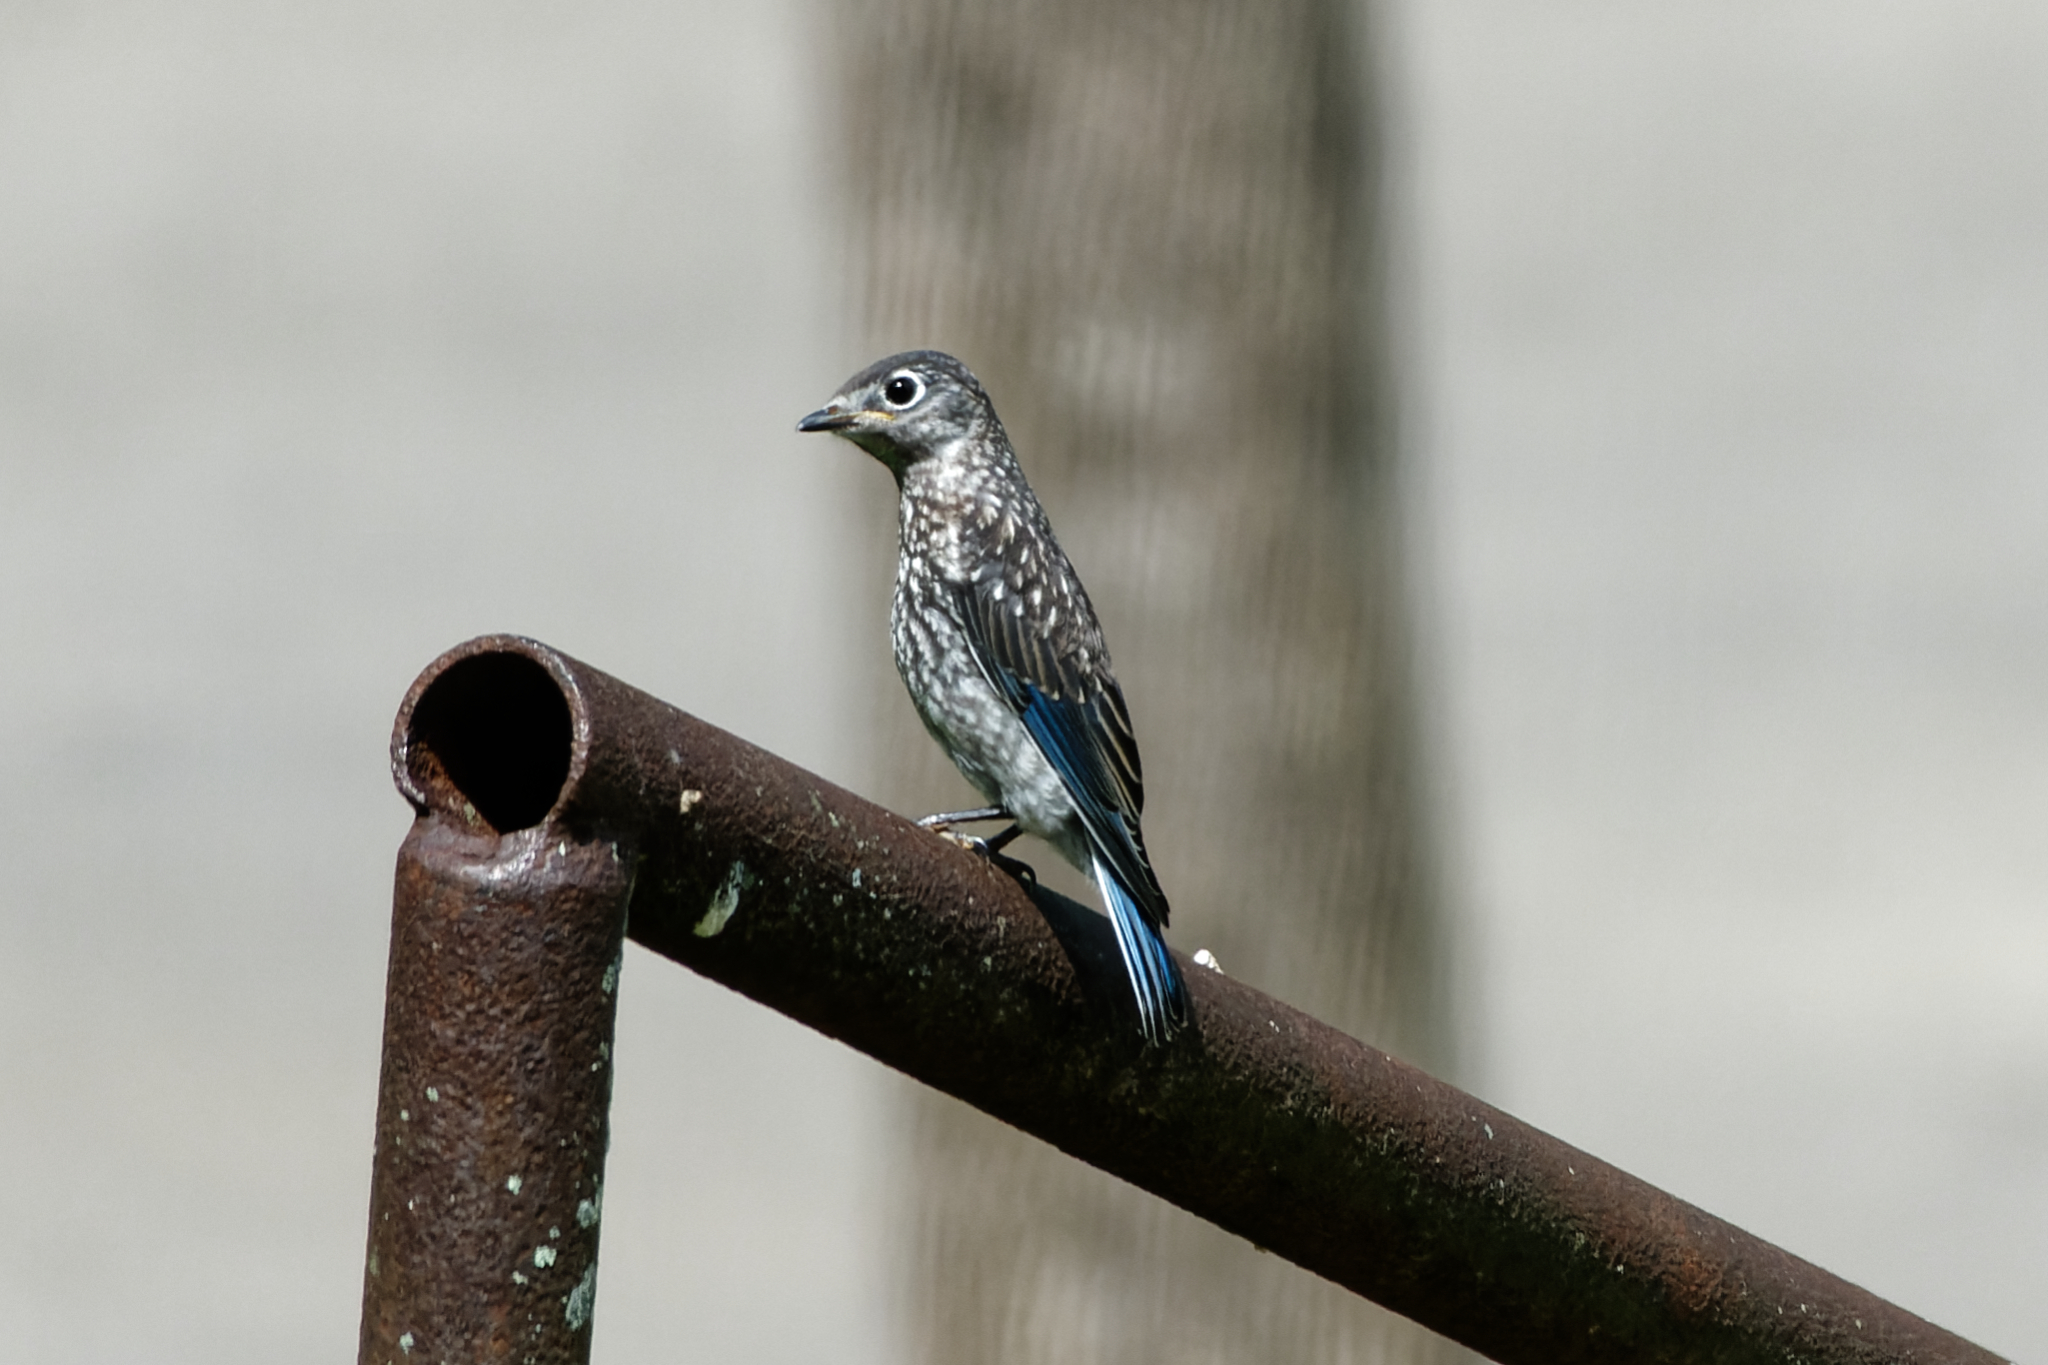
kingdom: Animalia
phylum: Chordata
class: Aves
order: Passeriformes
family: Turdidae
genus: Sialia
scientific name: Sialia sialis
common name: Eastern bluebird
